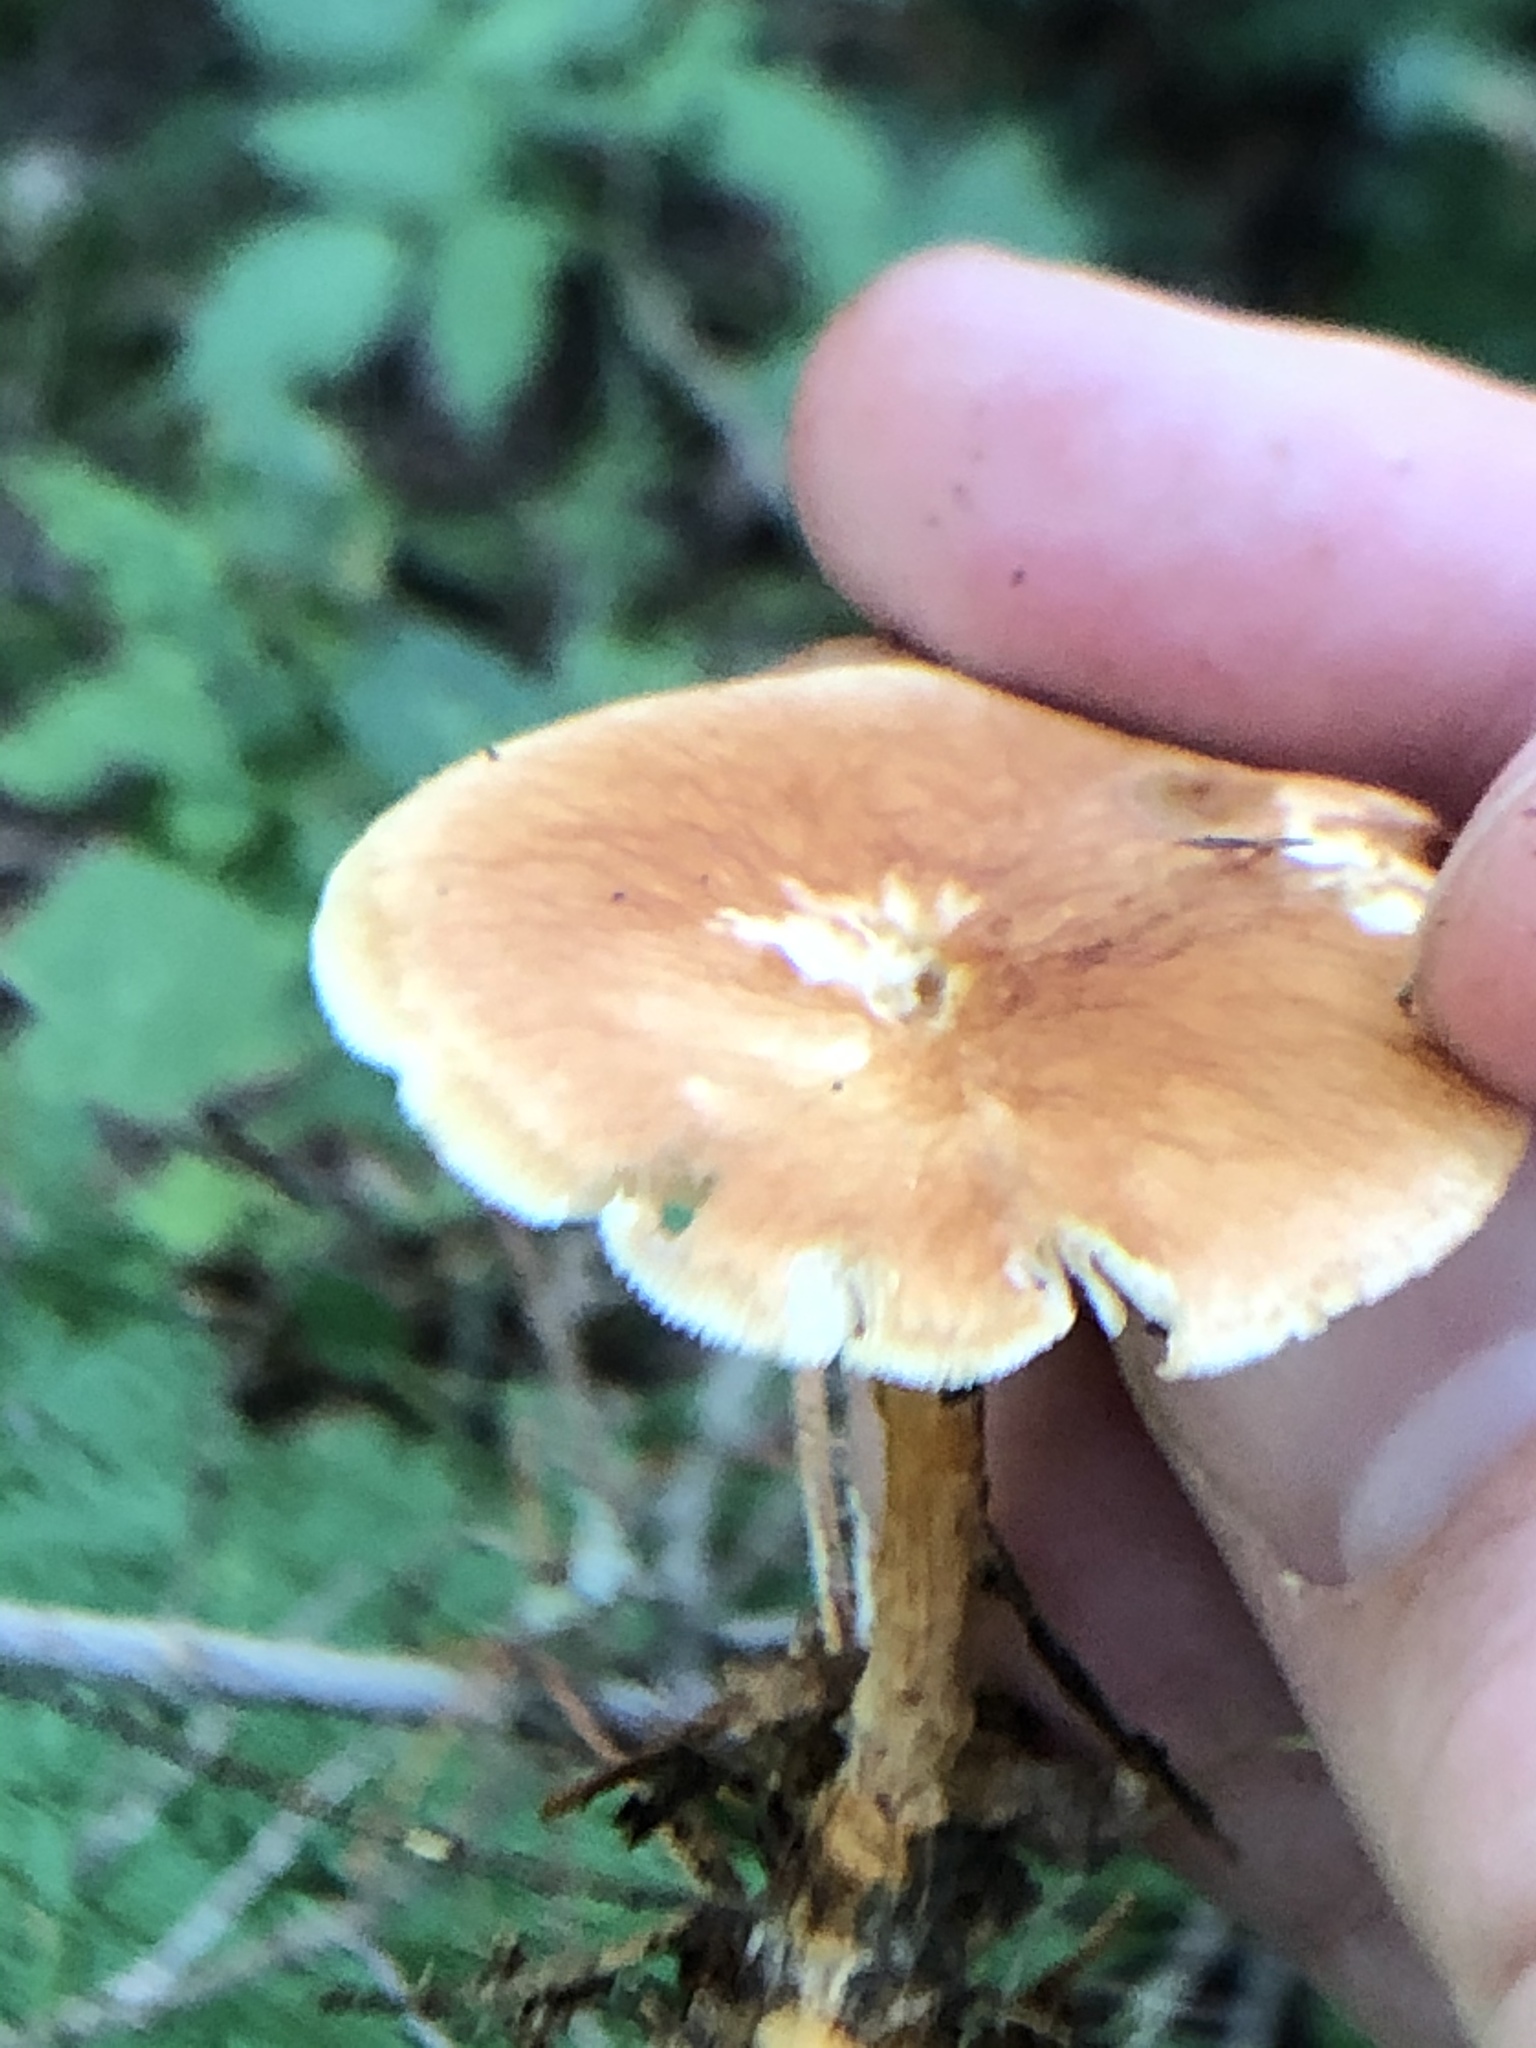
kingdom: Fungi
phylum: Basidiomycota
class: Agaricomycetes
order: Agaricales
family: Omphalotaceae
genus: Gymnopus
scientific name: Gymnopus dryophilus
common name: Penny top
